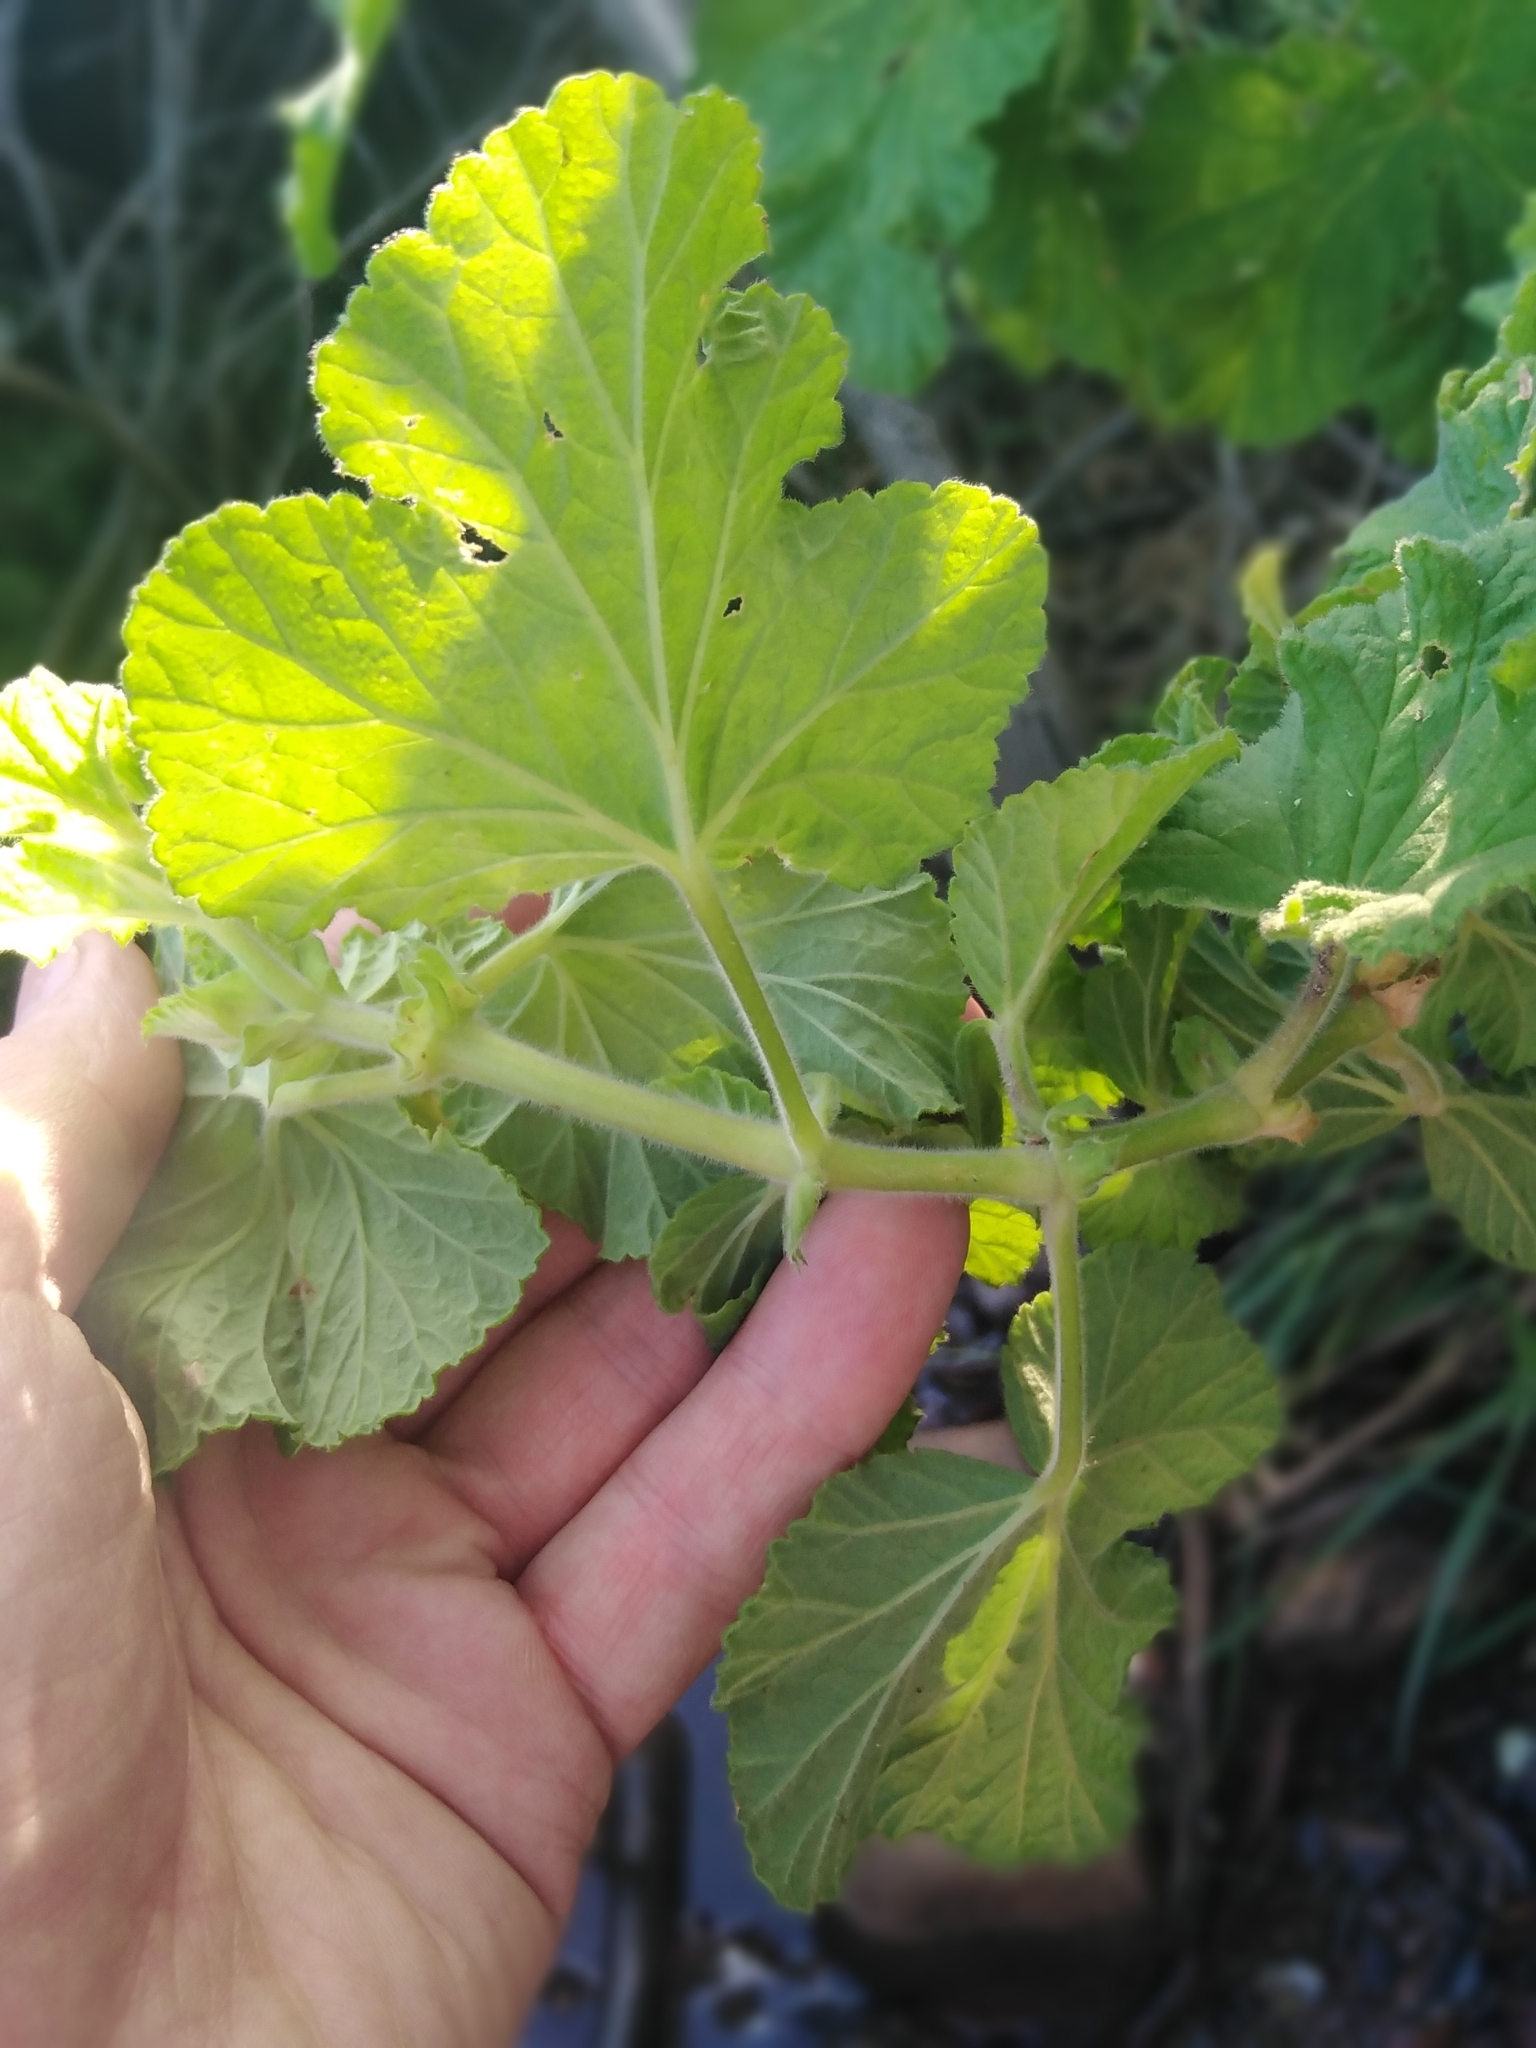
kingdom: Plantae
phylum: Tracheophyta
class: Magnoliopsida
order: Geraniales
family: Geraniaceae
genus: Pelargonium
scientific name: Pelargonium vitifolium
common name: Grapeleaf geranium
